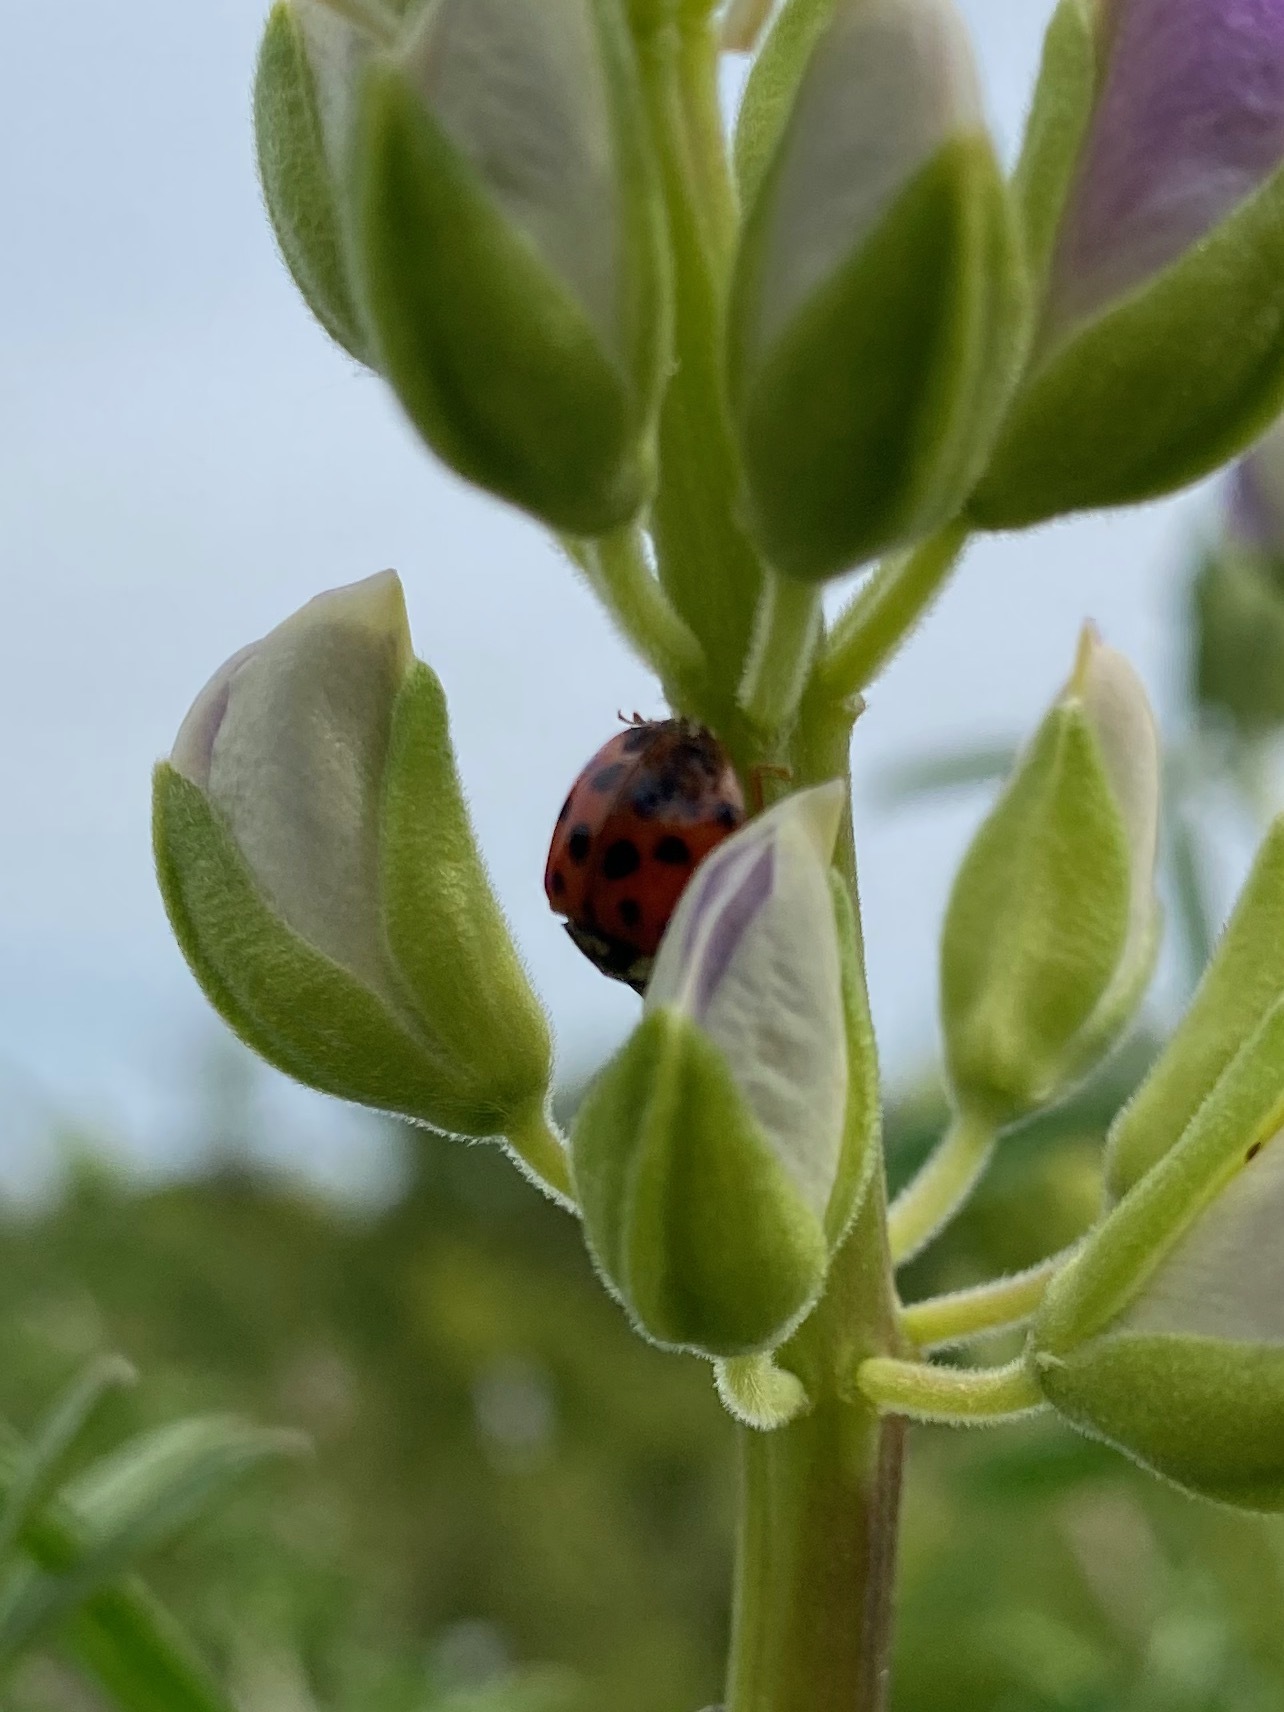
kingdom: Animalia
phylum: Arthropoda
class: Insecta
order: Coleoptera
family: Coccinellidae
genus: Harmonia
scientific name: Harmonia axyridis
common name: Harlequin ladybird
